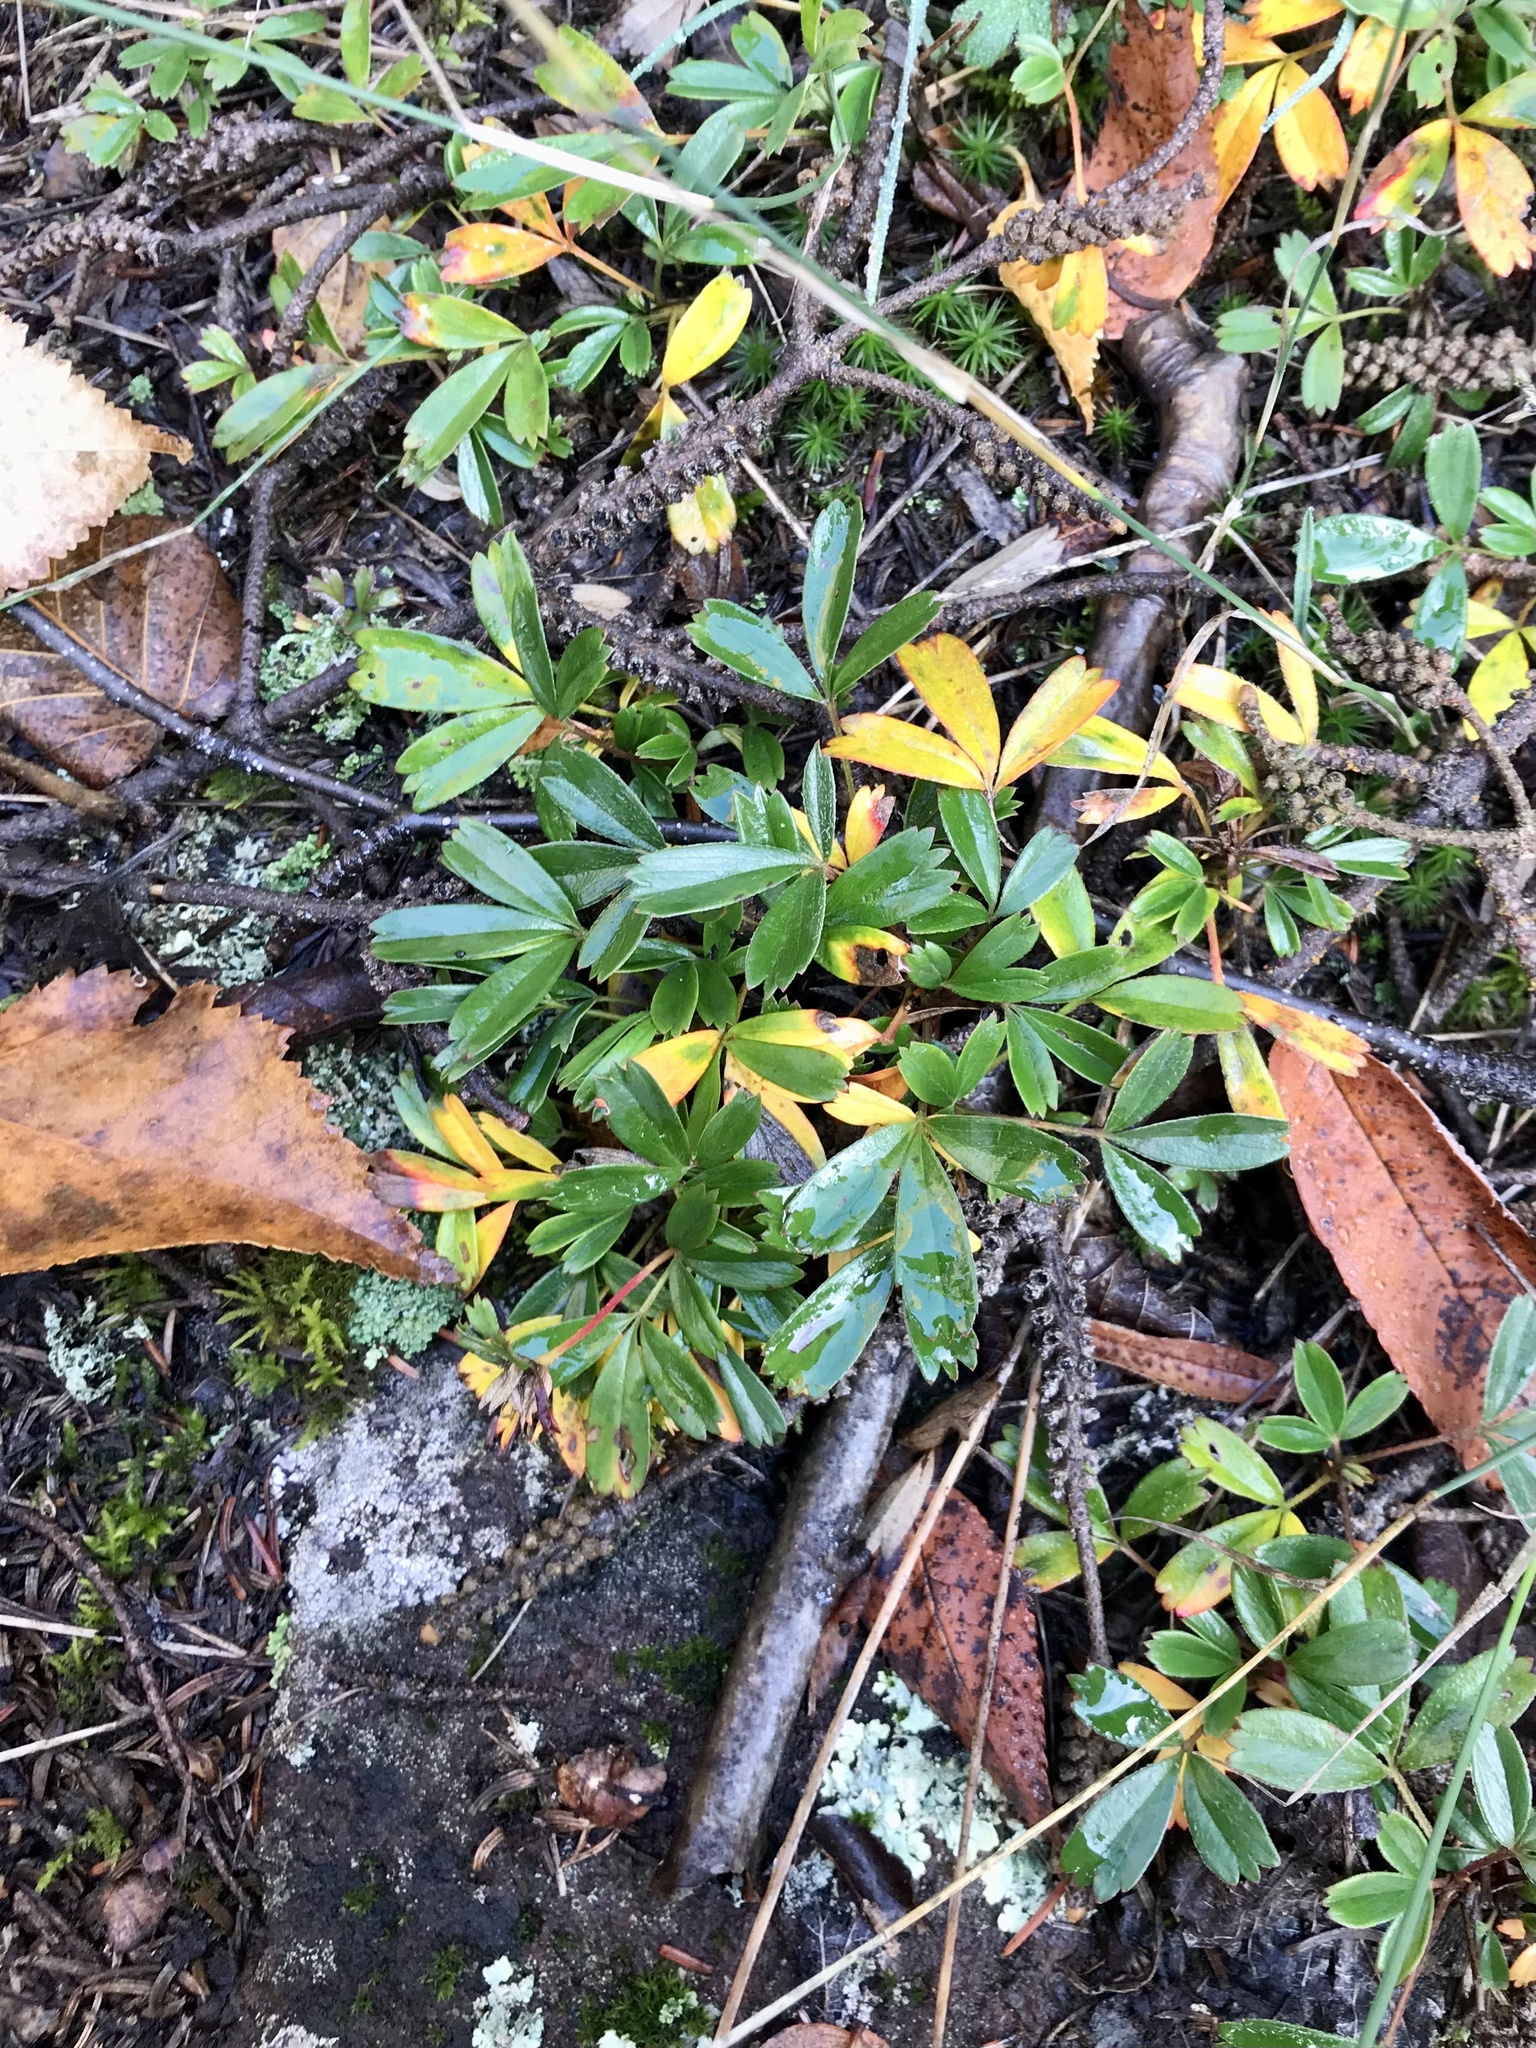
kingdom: Plantae
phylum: Tracheophyta
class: Magnoliopsida
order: Rosales
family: Rosaceae
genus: Sibbaldia
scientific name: Sibbaldia tridentata
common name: Three-toothed cinquefoil
